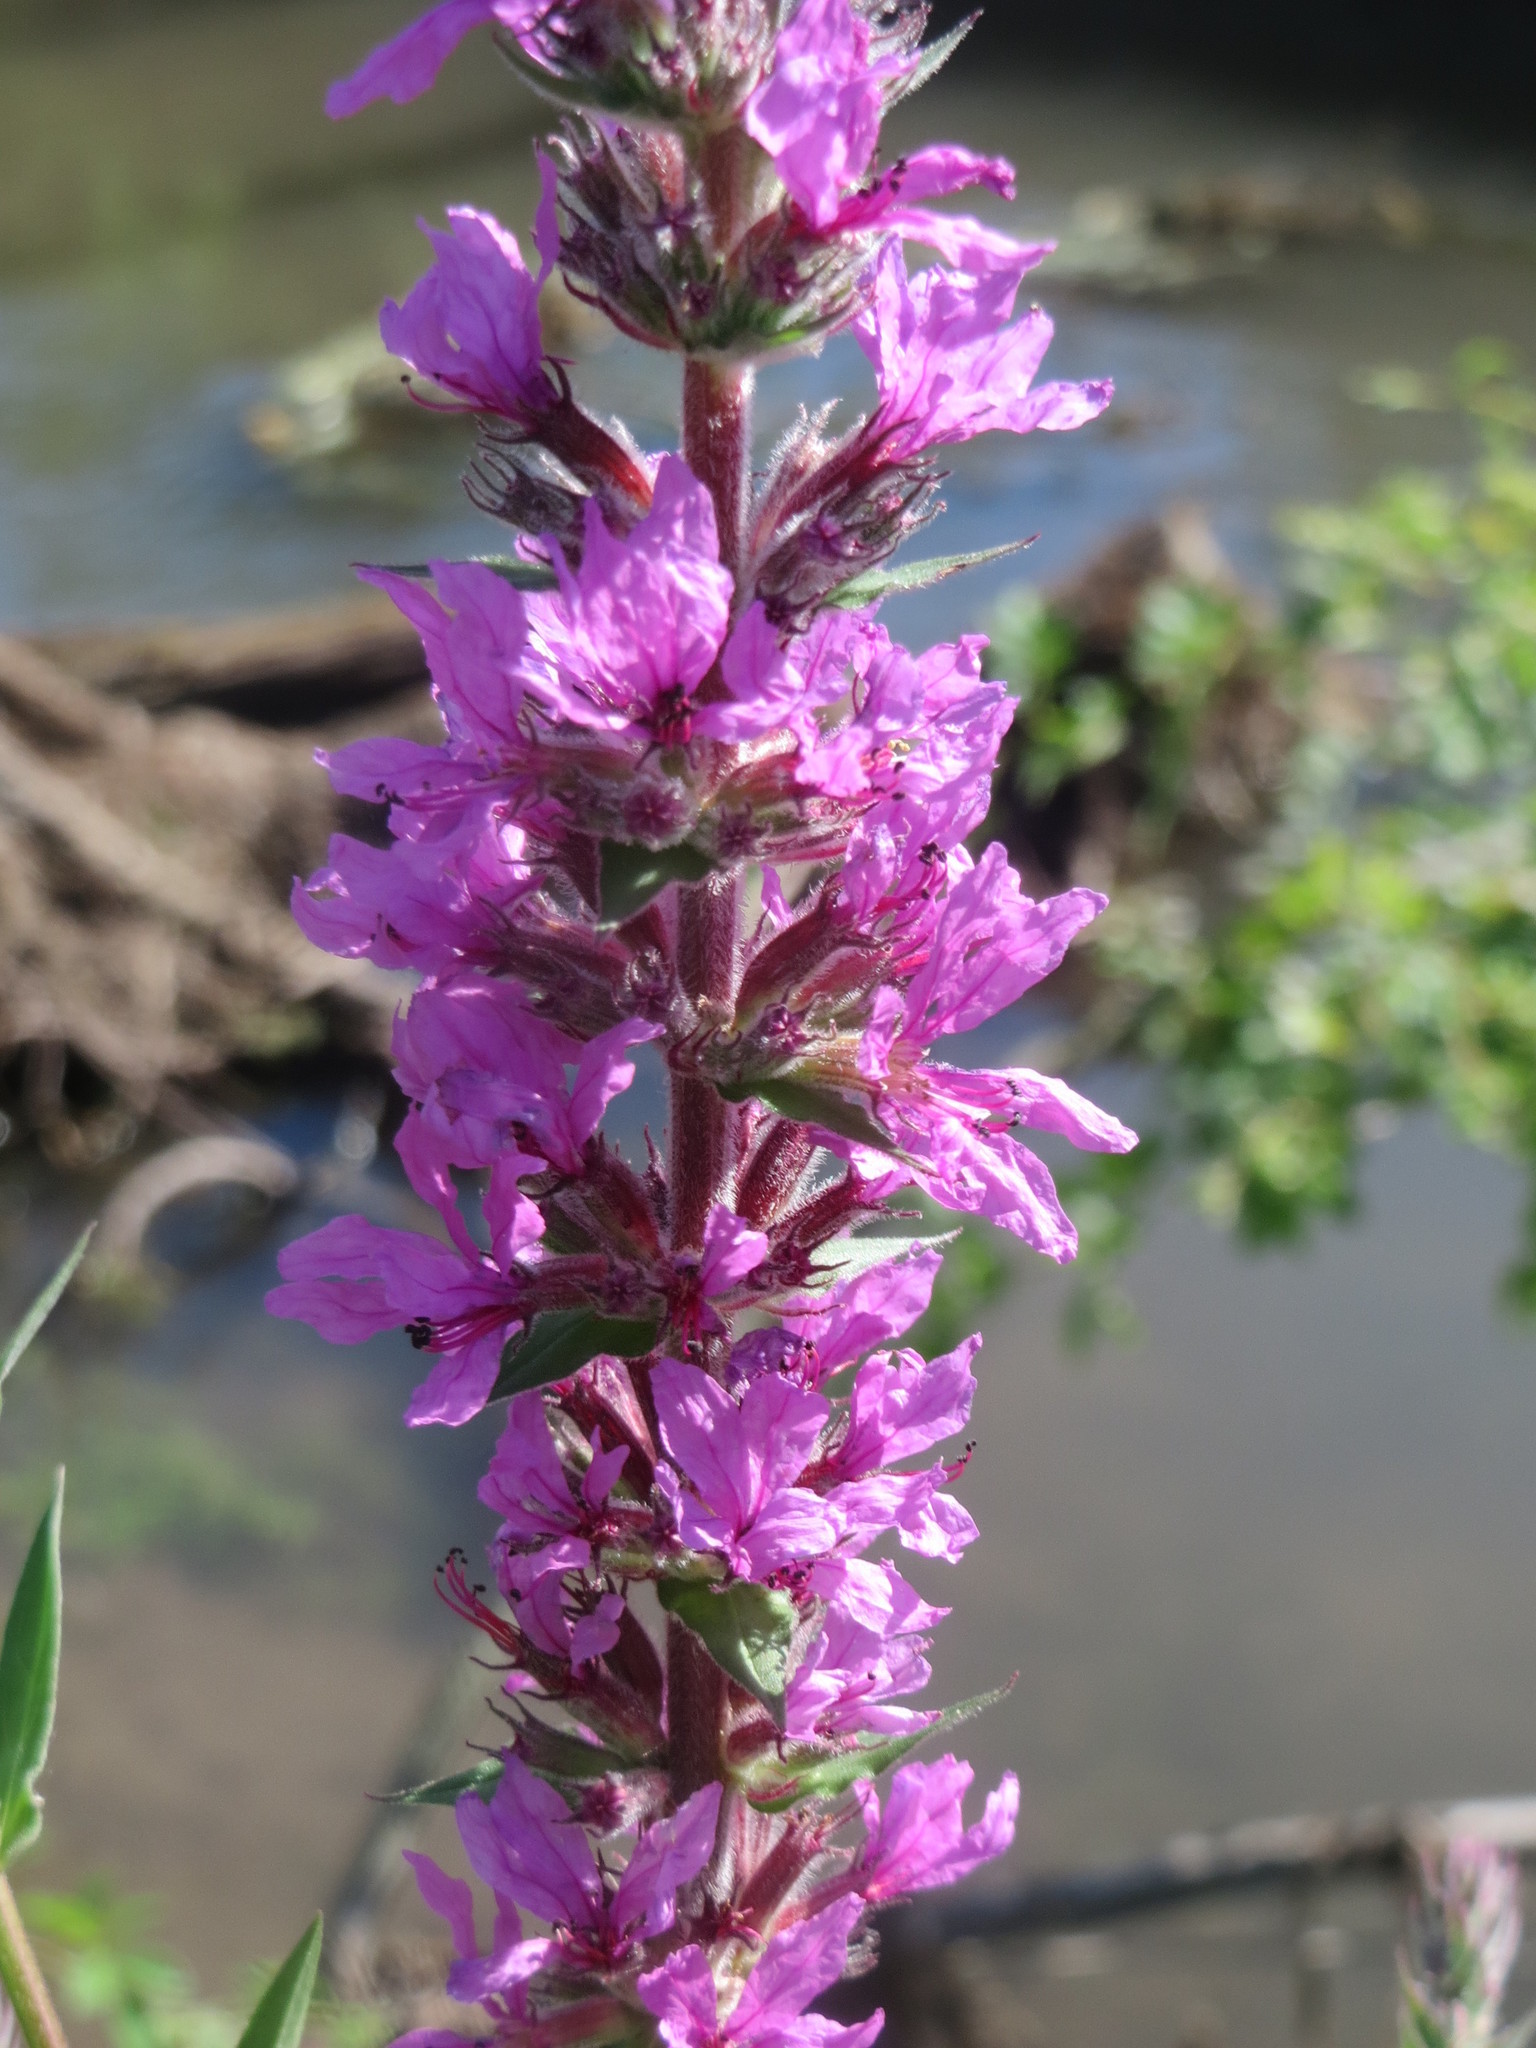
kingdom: Plantae
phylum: Tracheophyta
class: Magnoliopsida
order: Myrtales
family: Lythraceae
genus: Lythrum
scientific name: Lythrum salicaria
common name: Purple loosestrife
